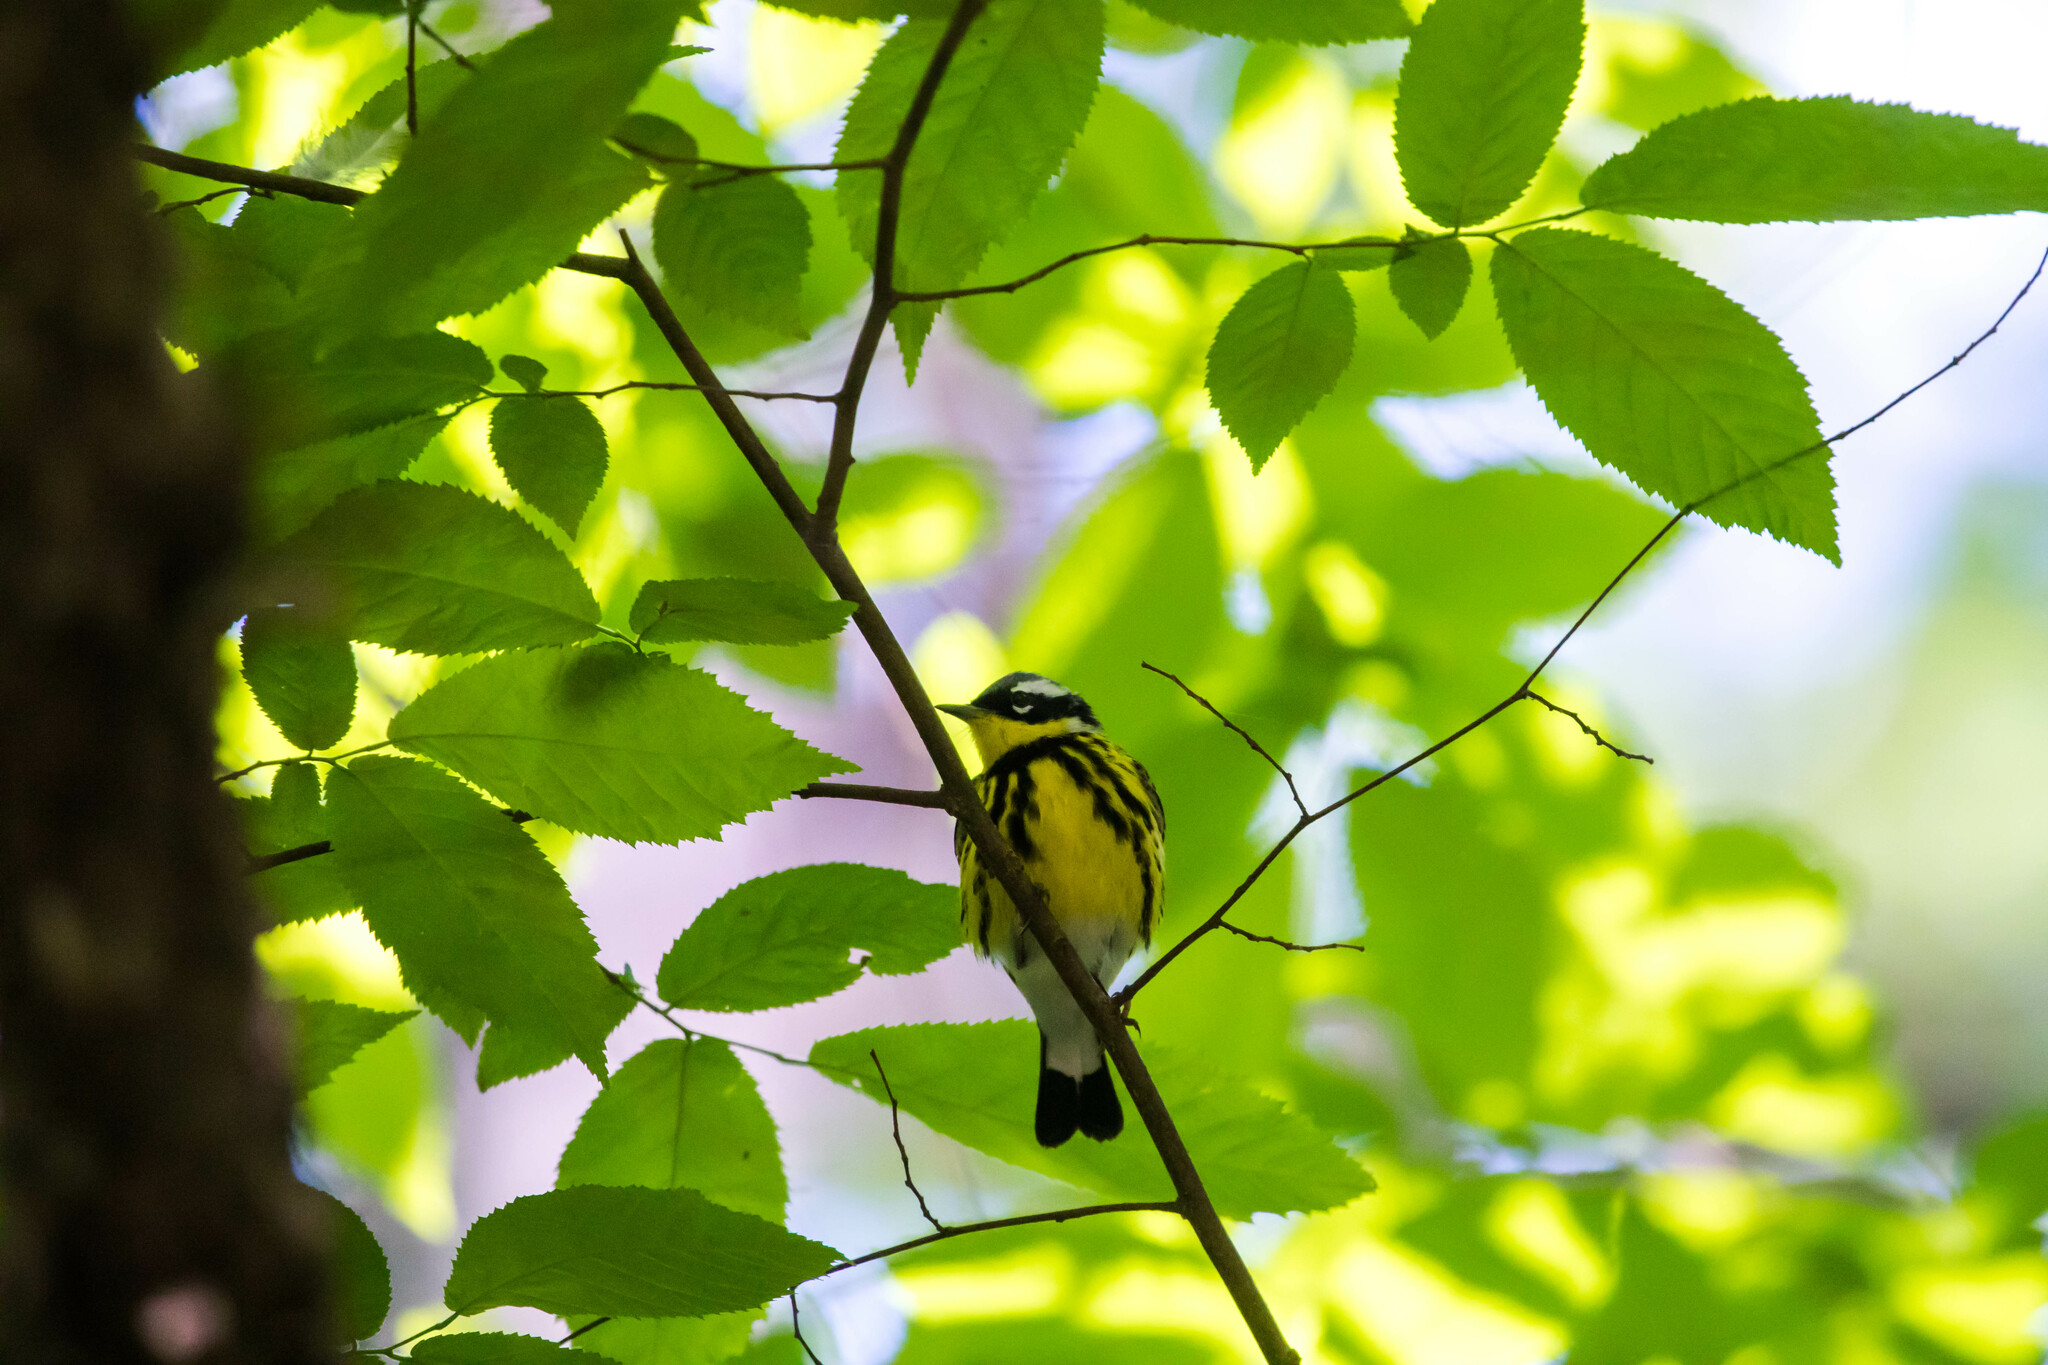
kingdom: Animalia
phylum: Chordata
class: Aves
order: Passeriformes
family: Parulidae
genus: Setophaga
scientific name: Setophaga magnolia
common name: Magnolia warbler
